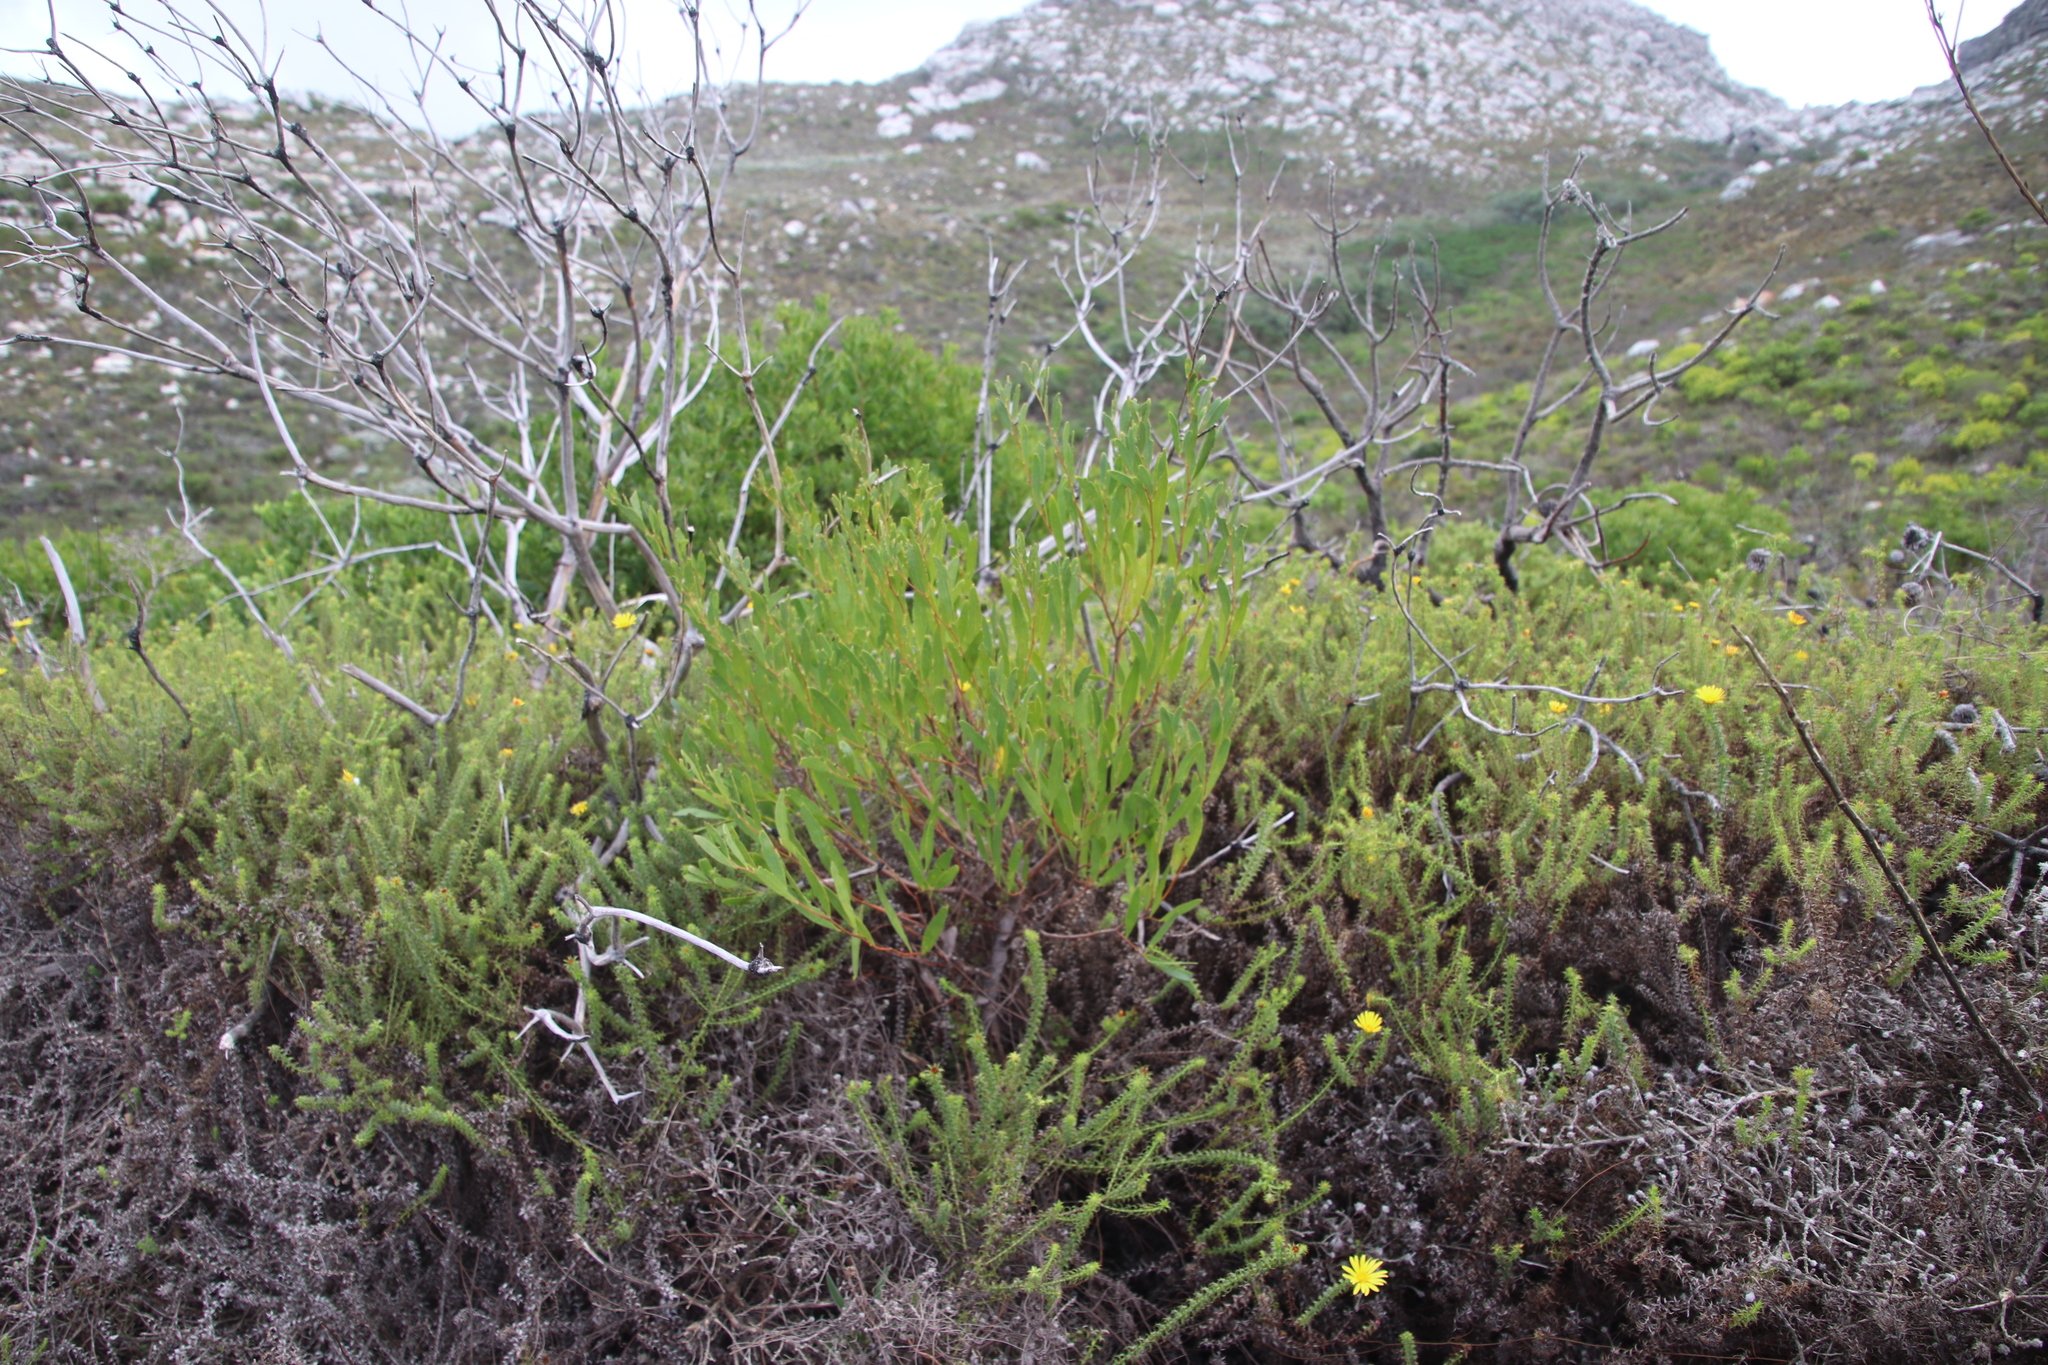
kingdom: Plantae
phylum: Tracheophyta
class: Magnoliopsida
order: Fabales
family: Fabaceae
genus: Acacia
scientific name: Acacia cyclops
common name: Coastal wattle
